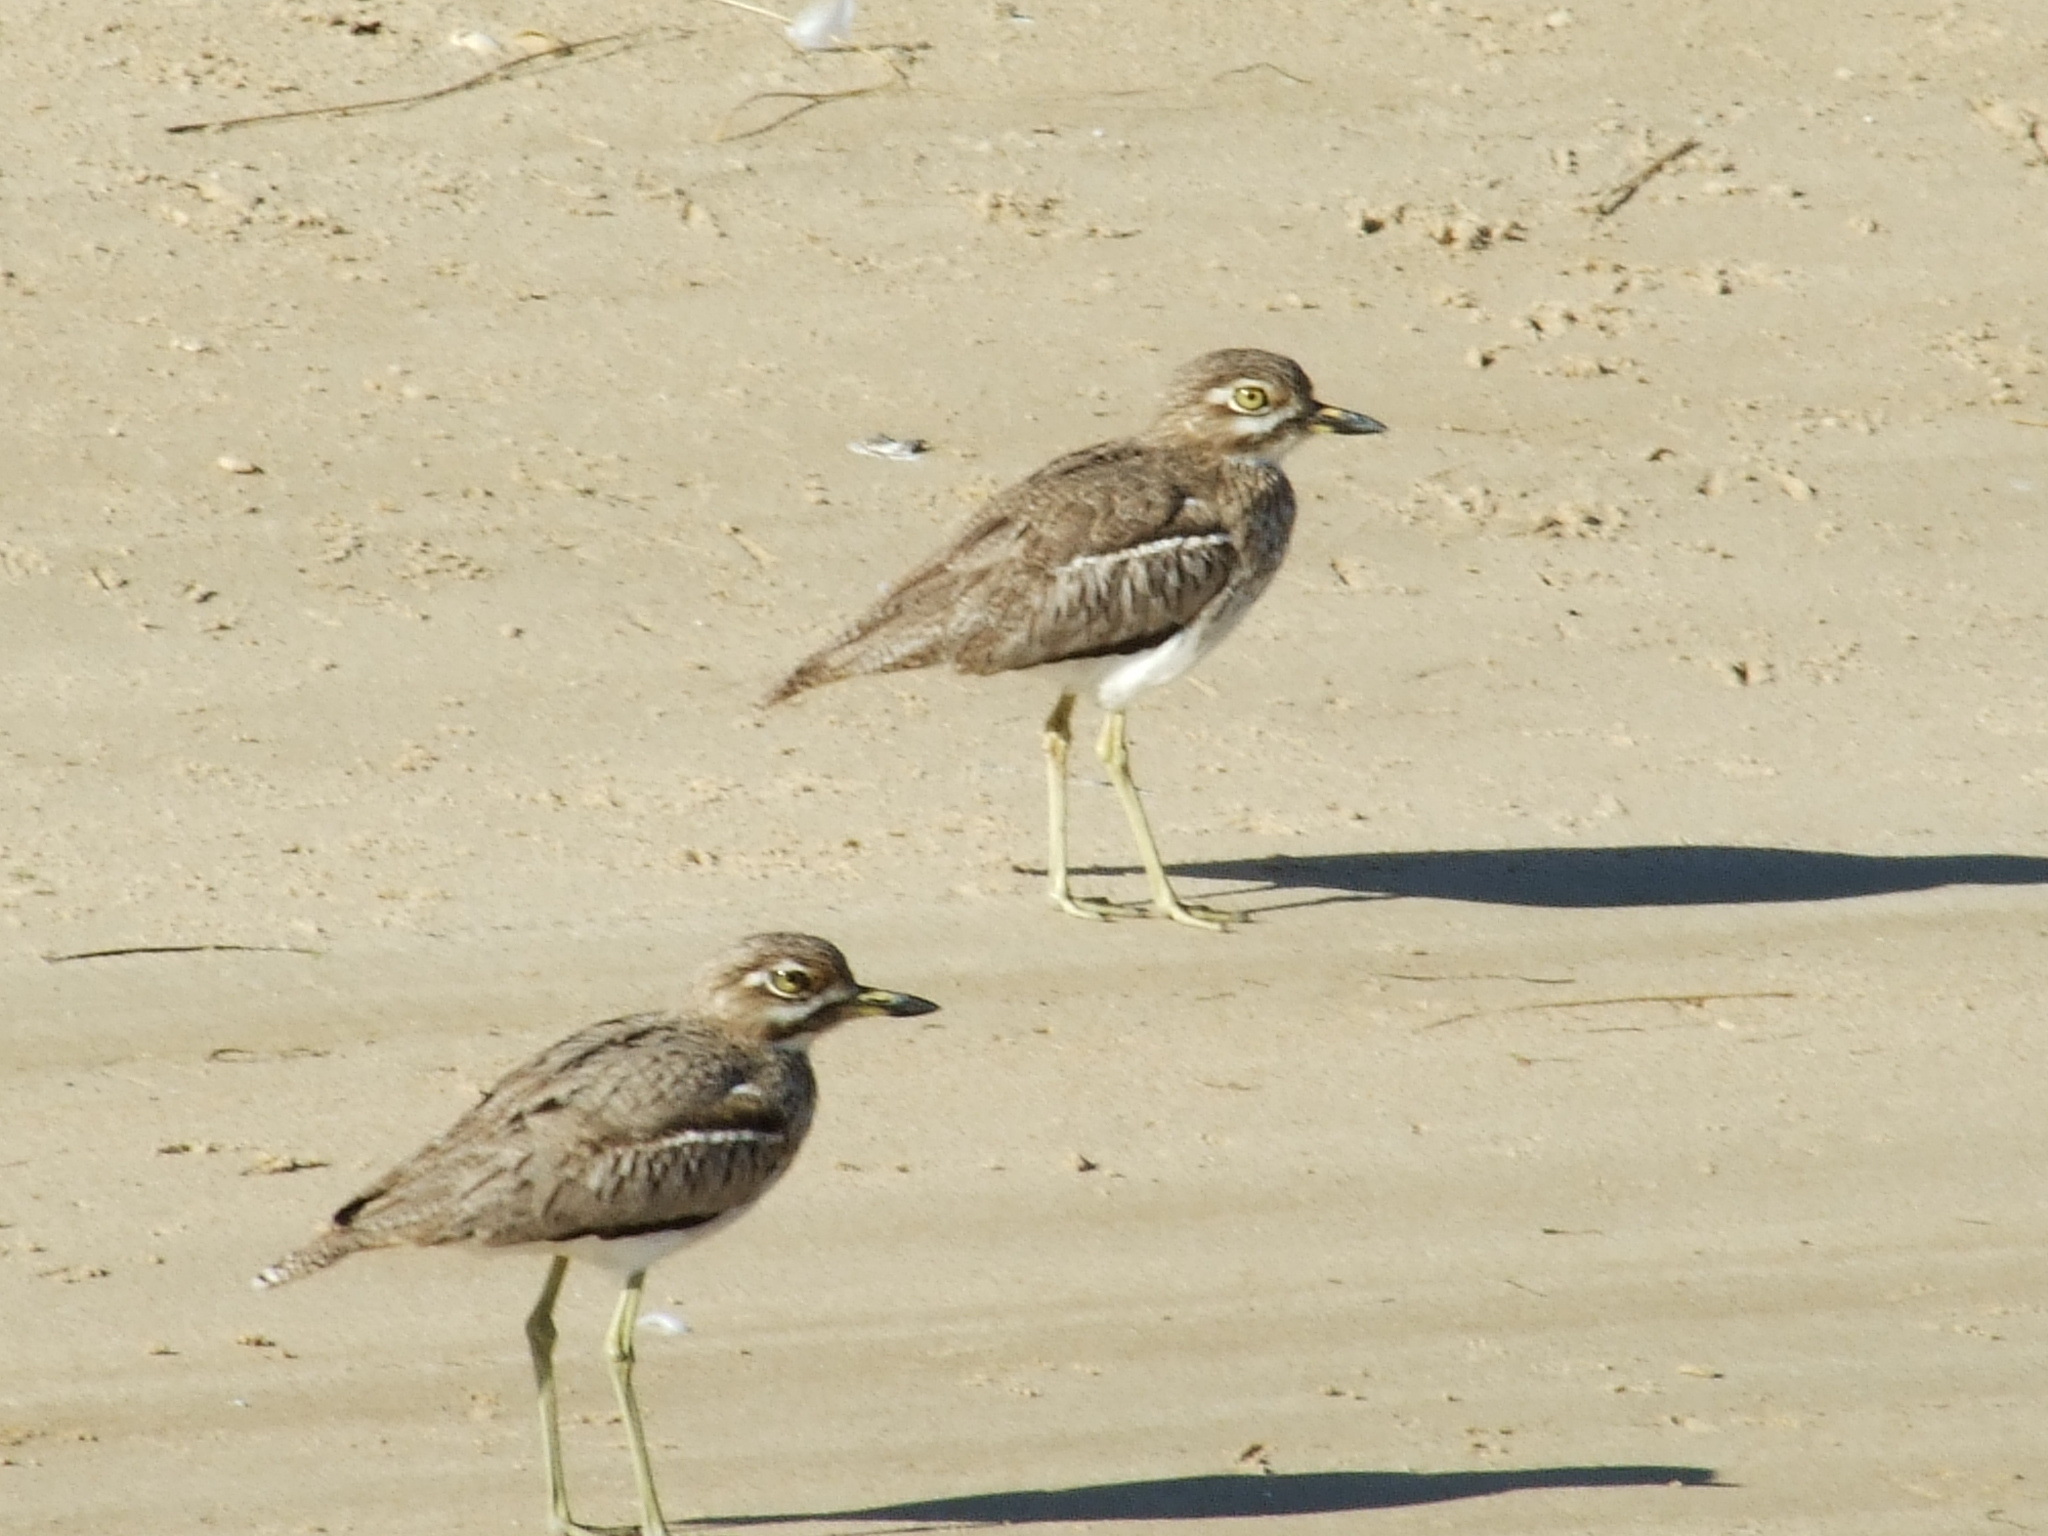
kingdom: Animalia
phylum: Chordata
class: Aves
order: Charadriiformes
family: Burhinidae
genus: Burhinus
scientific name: Burhinus vermiculatus
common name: Water thick-knee
